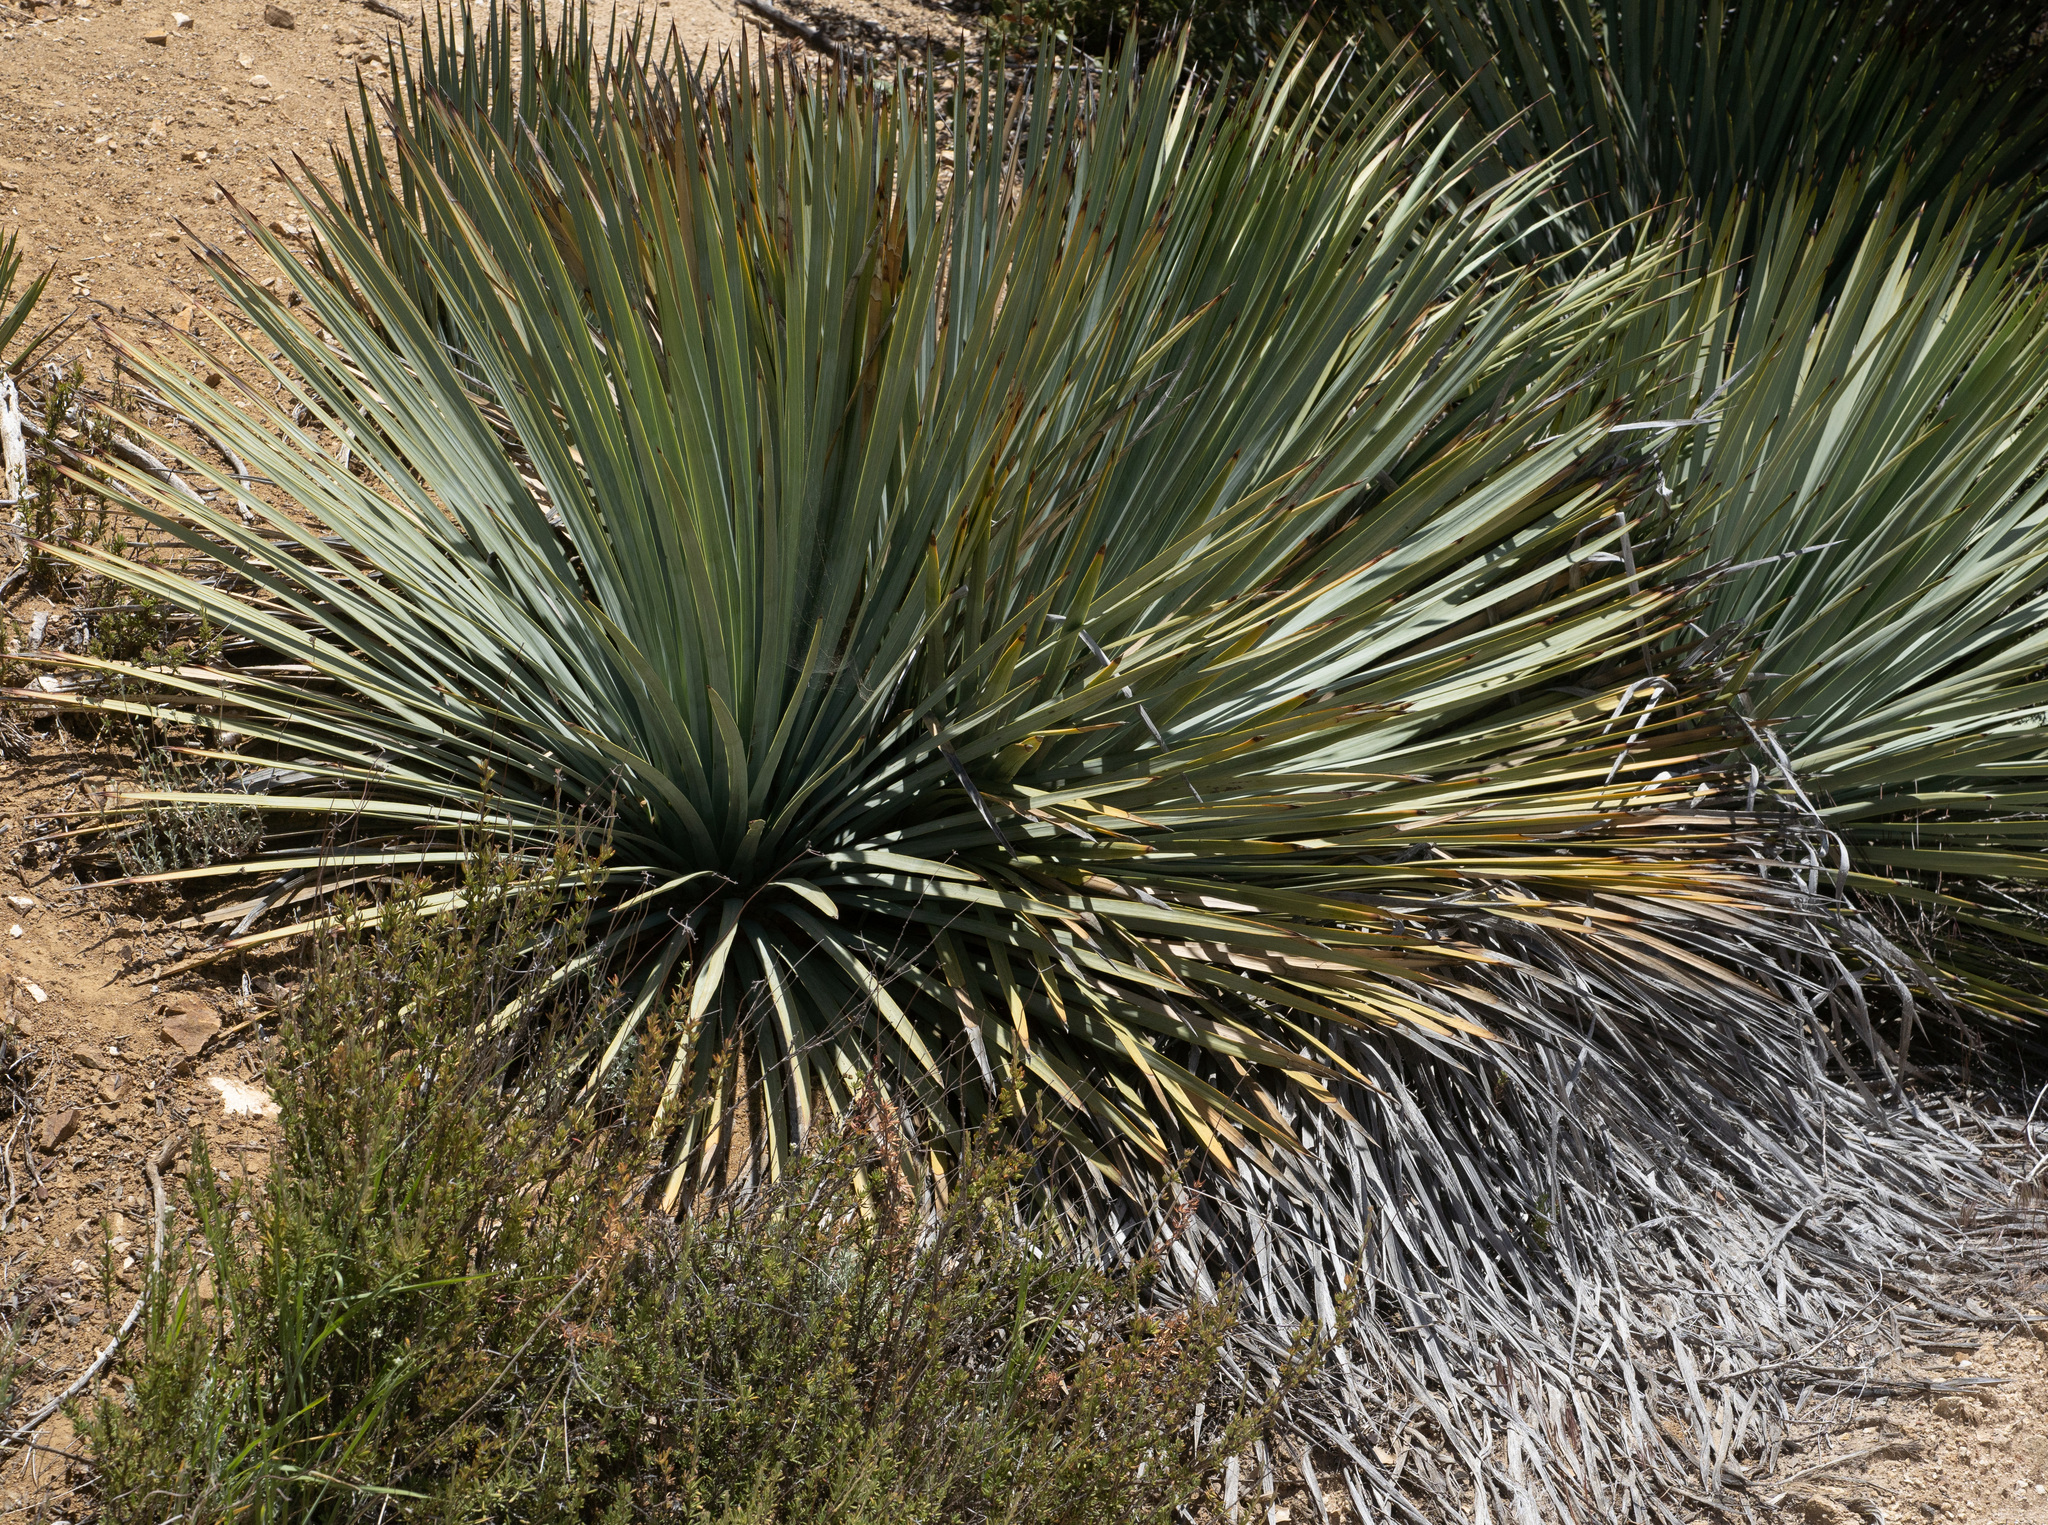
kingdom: Plantae
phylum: Tracheophyta
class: Liliopsida
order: Asparagales
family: Asparagaceae
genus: Hesperoyucca
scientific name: Hesperoyucca whipplei
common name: Our lord's-candle
